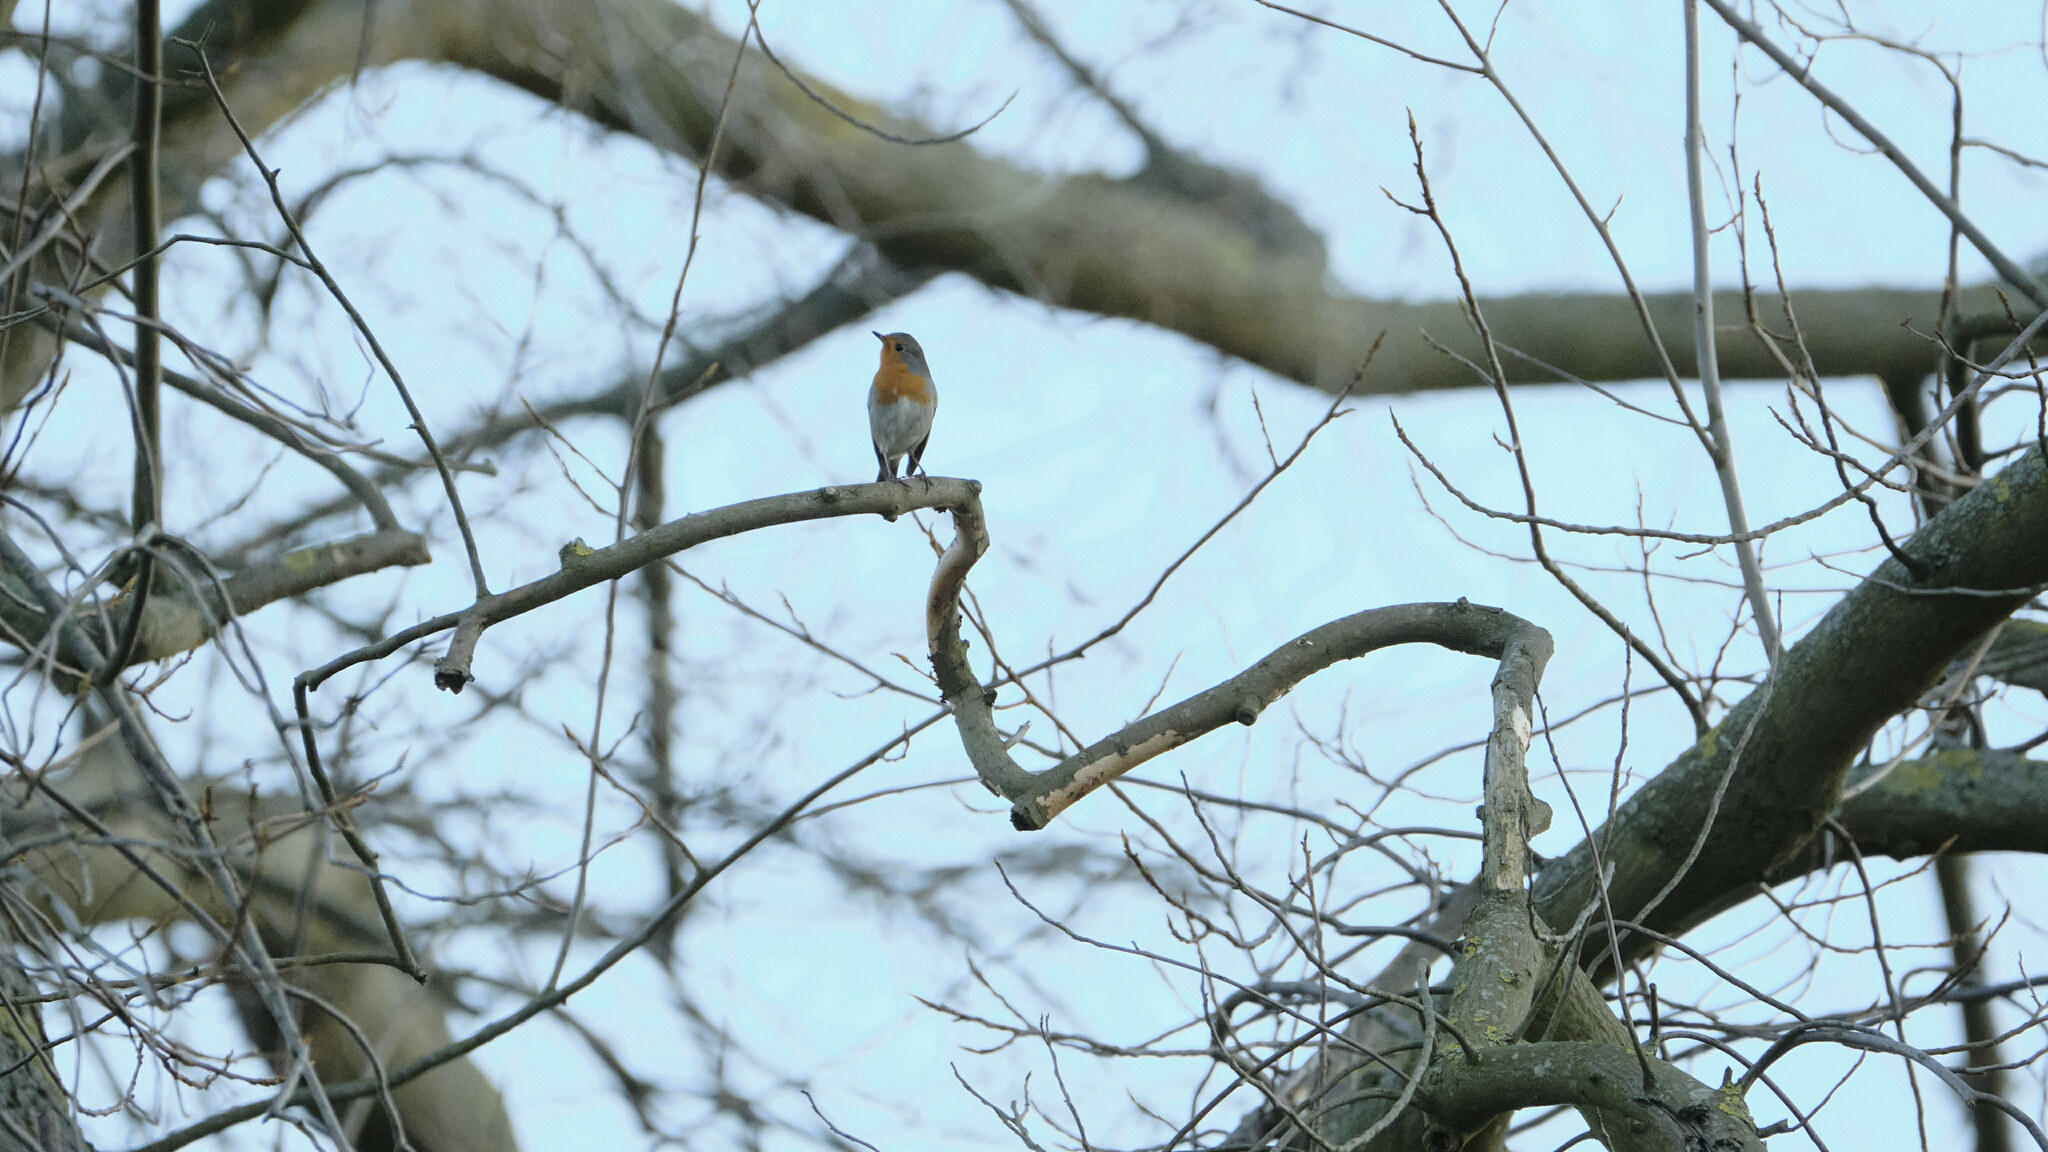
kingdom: Animalia
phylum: Chordata
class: Aves
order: Passeriformes
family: Muscicapidae
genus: Erithacus
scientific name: Erithacus rubecula
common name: European robin
